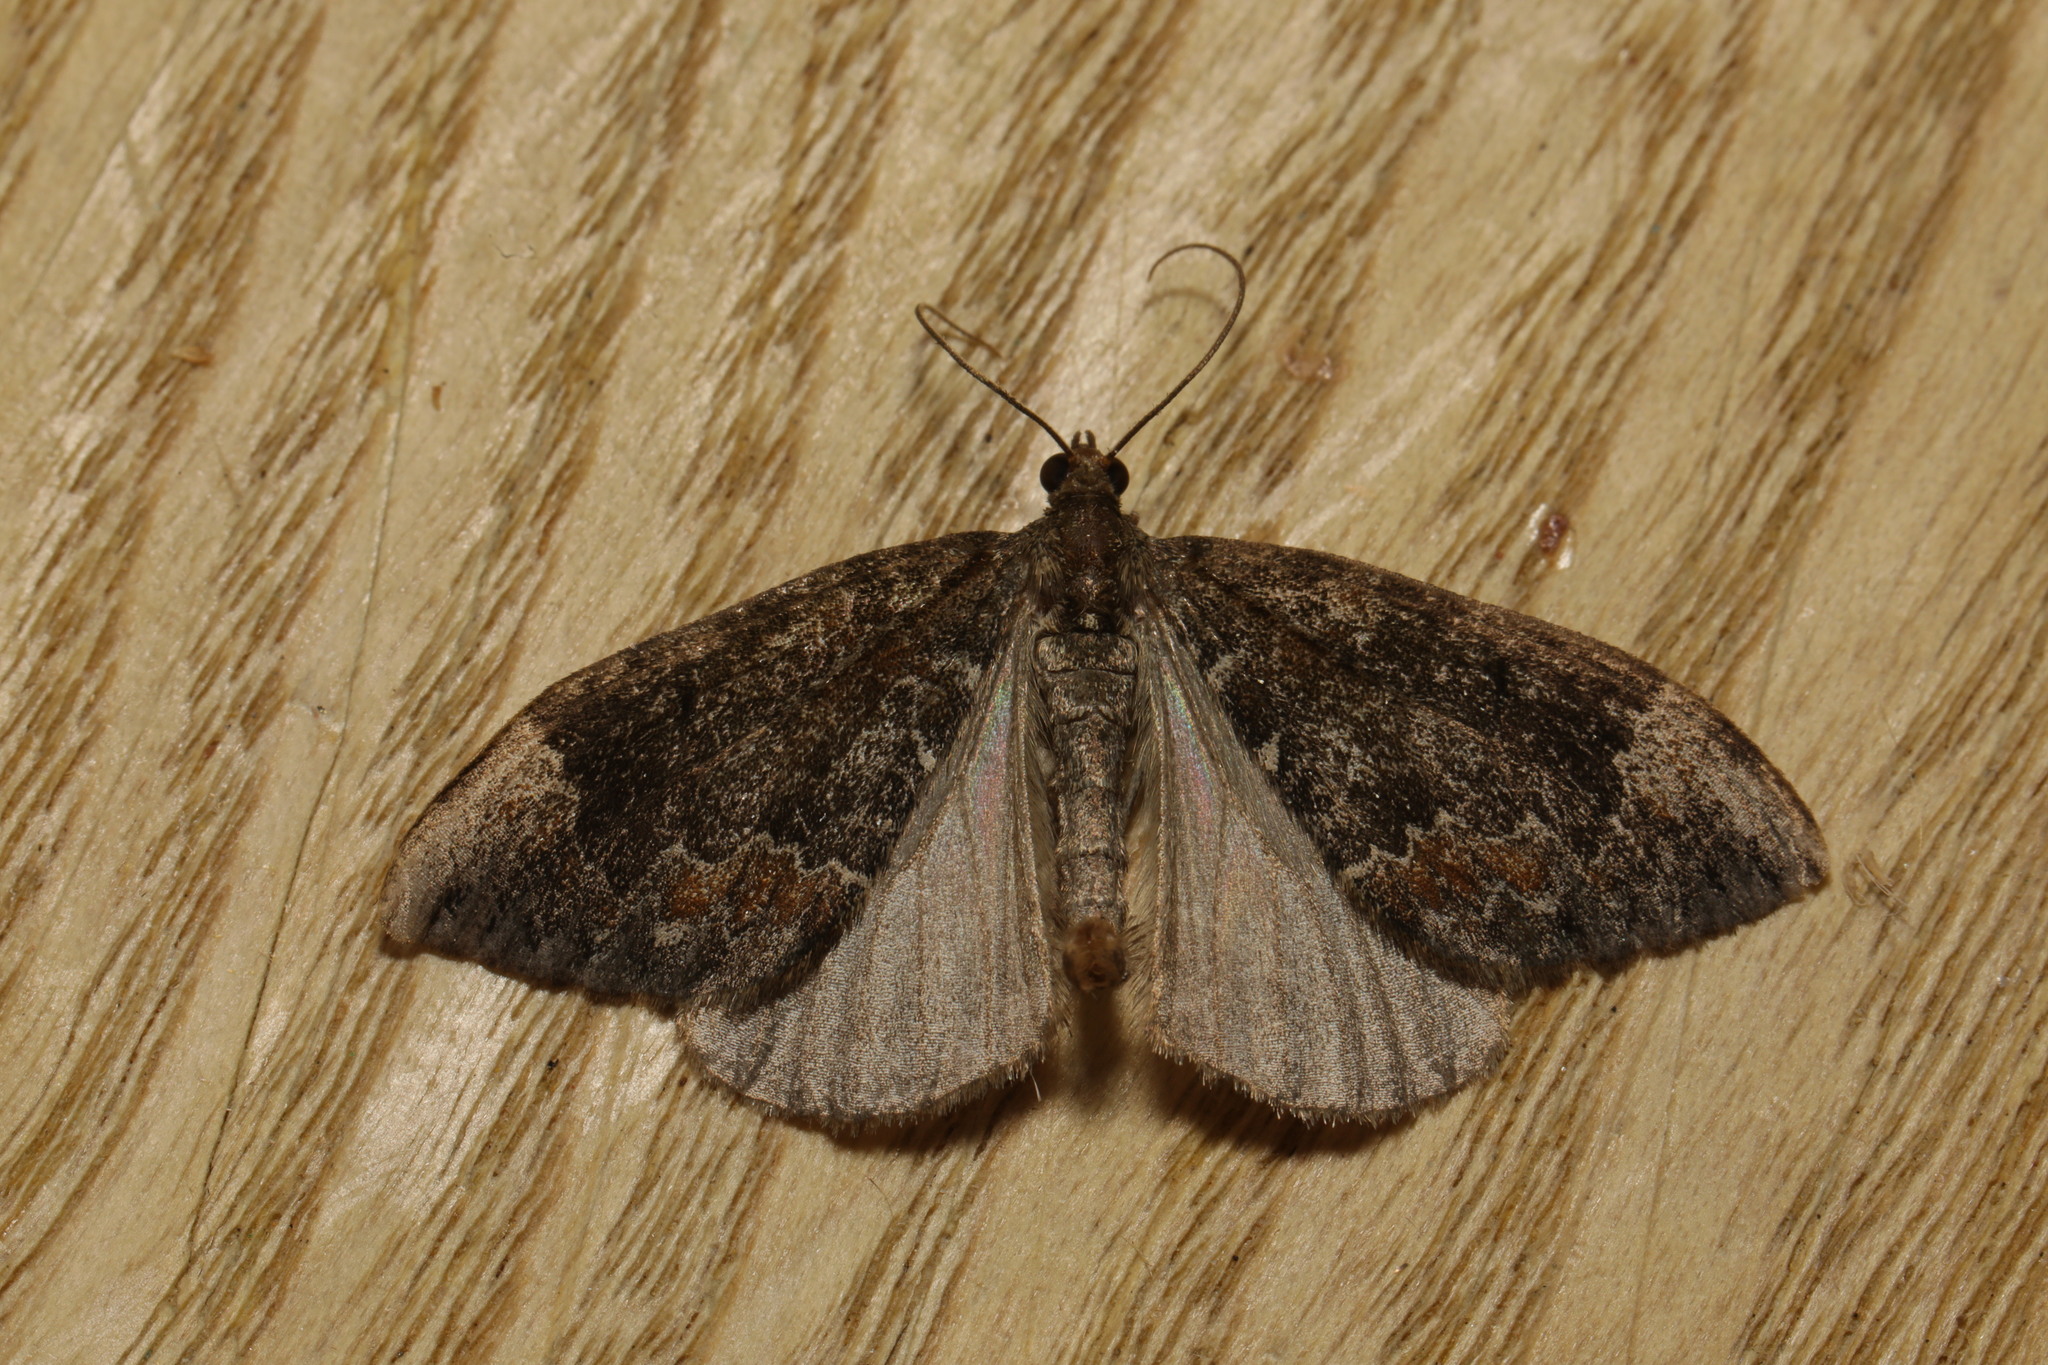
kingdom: Animalia
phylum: Arthropoda
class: Insecta
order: Lepidoptera
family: Geometridae
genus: Hydriomena
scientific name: Hydriomena furcata
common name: July highflyer
